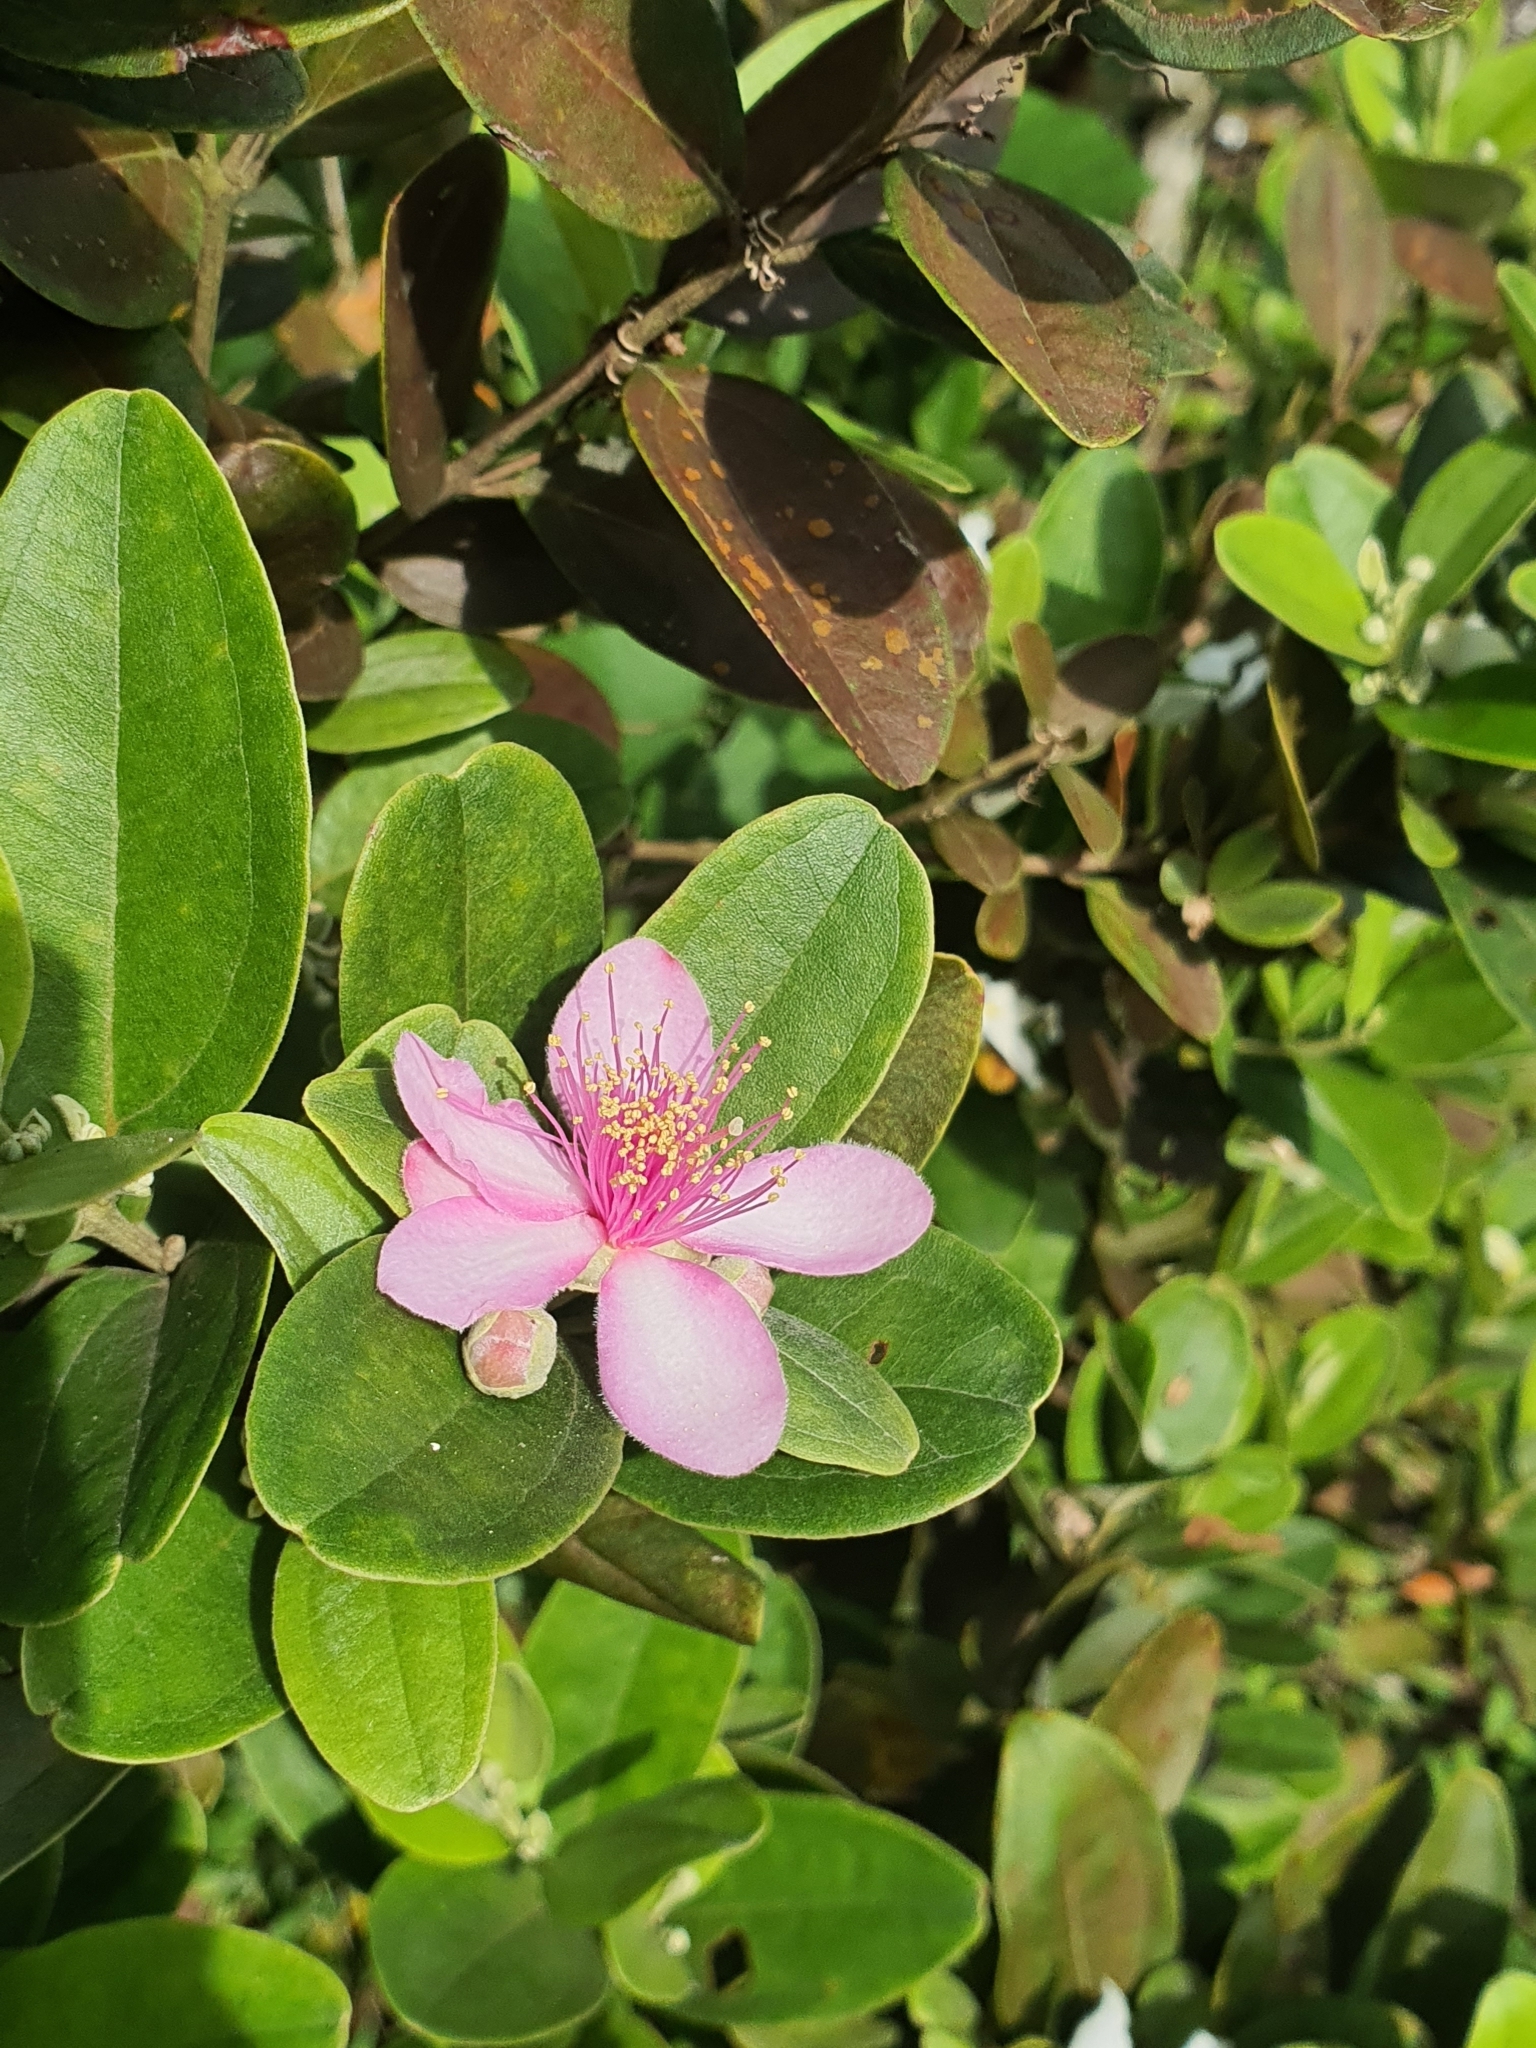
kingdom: Plantae
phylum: Tracheophyta
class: Magnoliopsida
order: Myrtales
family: Myrtaceae
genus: Rhodomyrtus
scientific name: Rhodomyrtus tomentosa
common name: Rose myrtle
